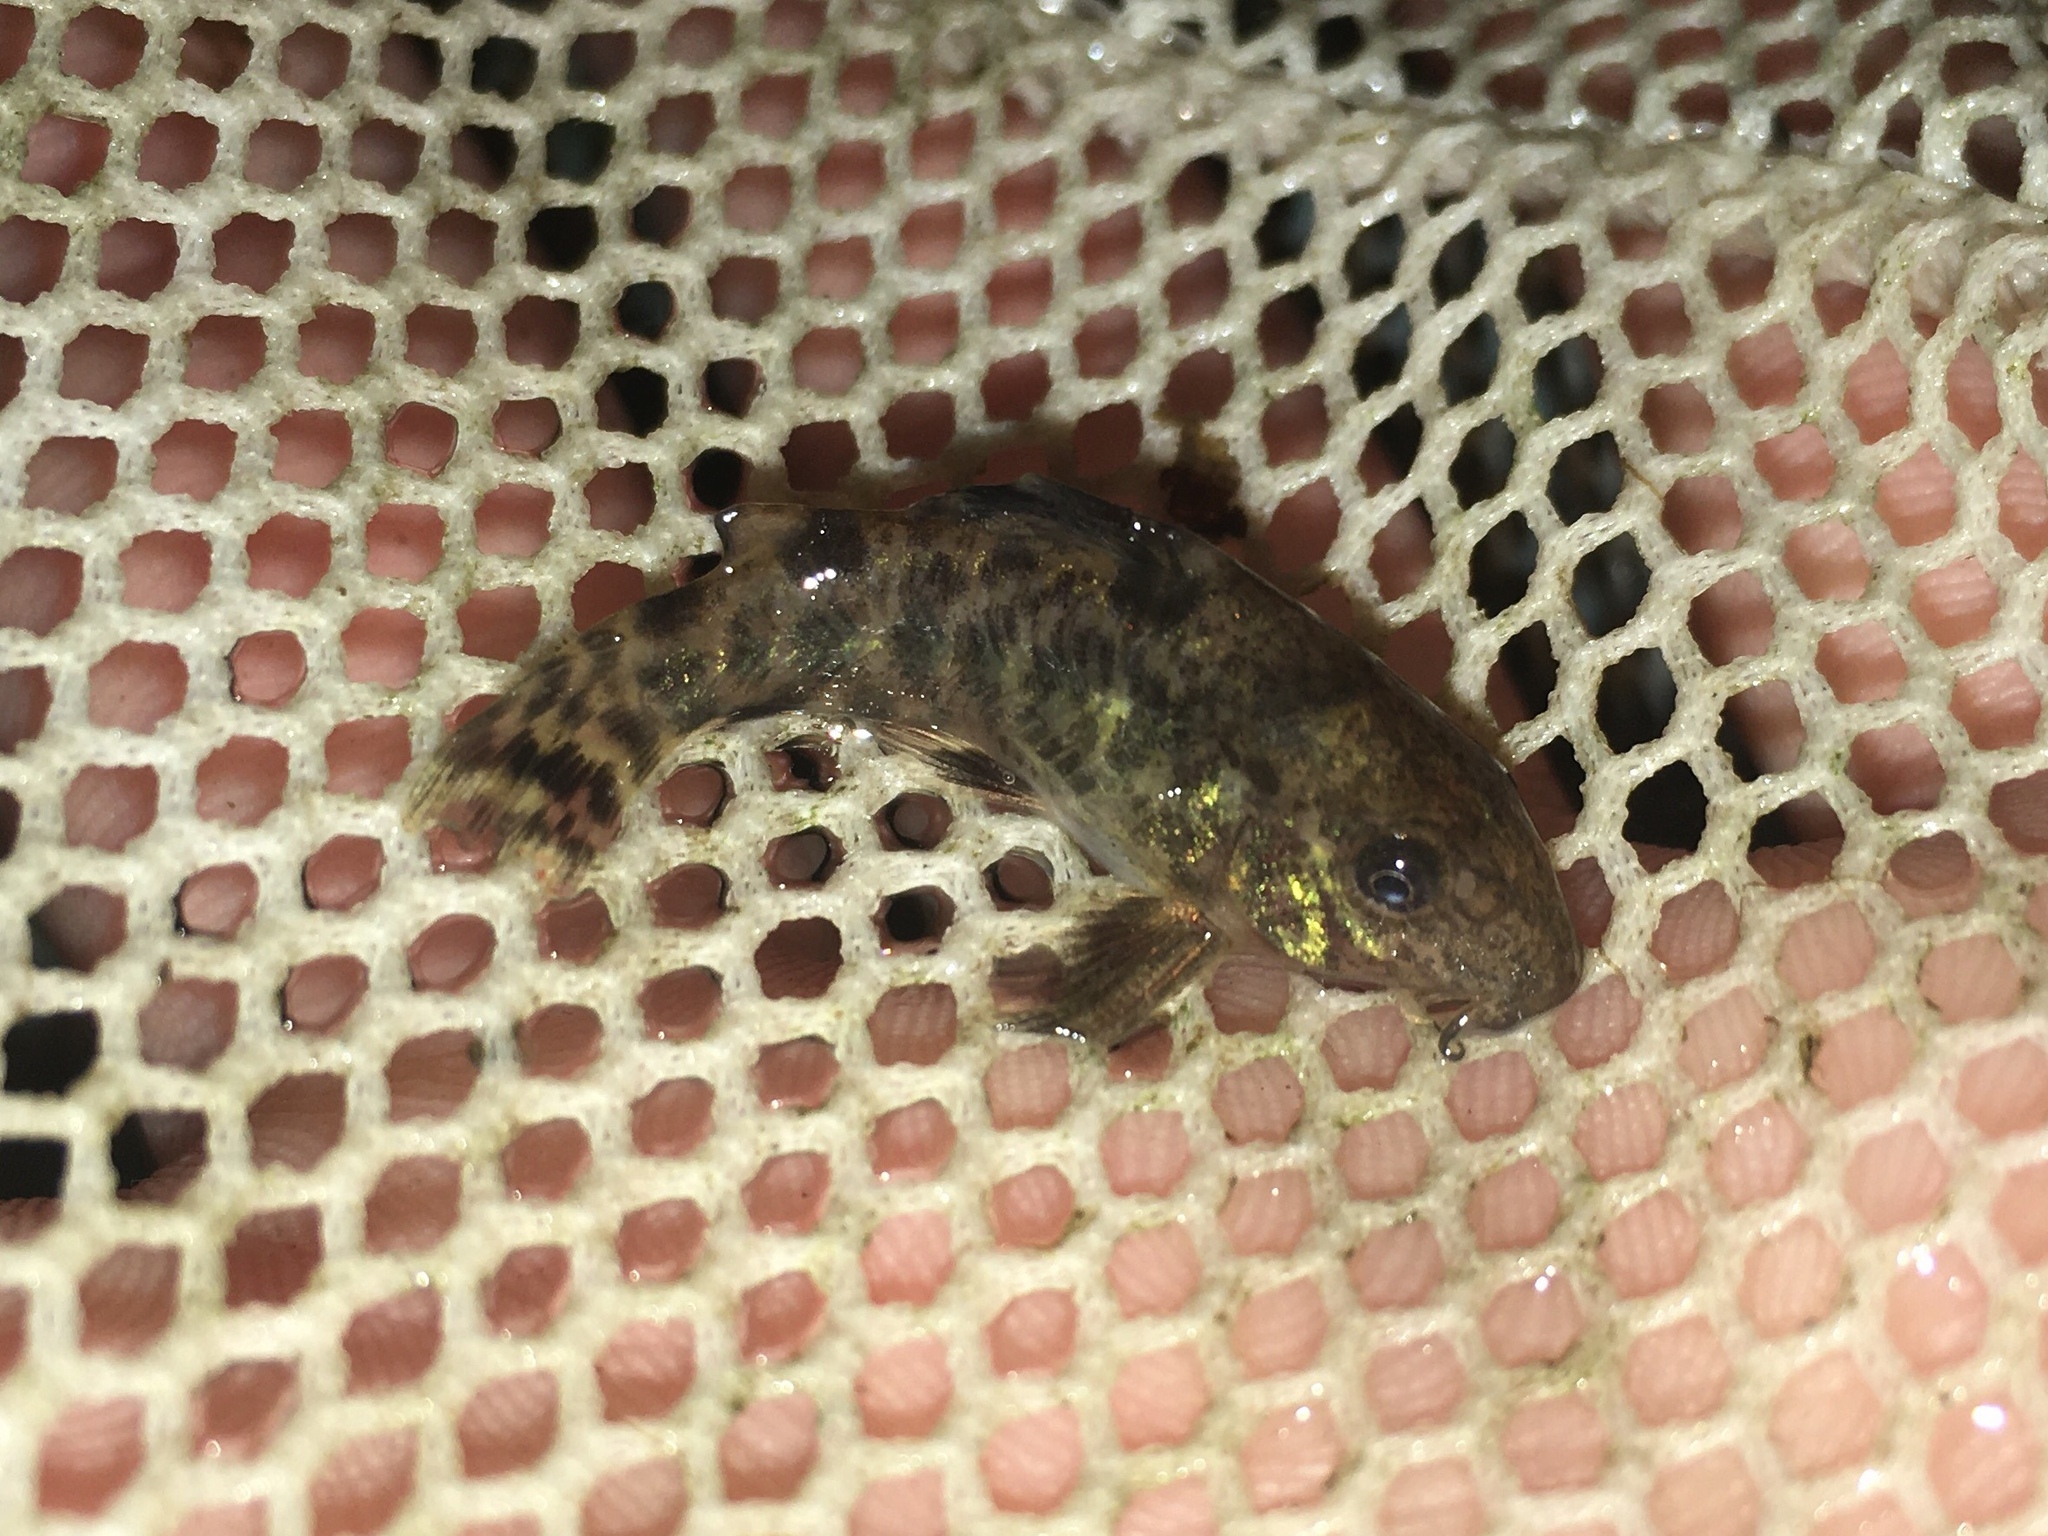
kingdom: Animalia
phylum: Chordata
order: Siluriformes
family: Callichthyidae
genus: Corydoras
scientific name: Corydoras paleatus
